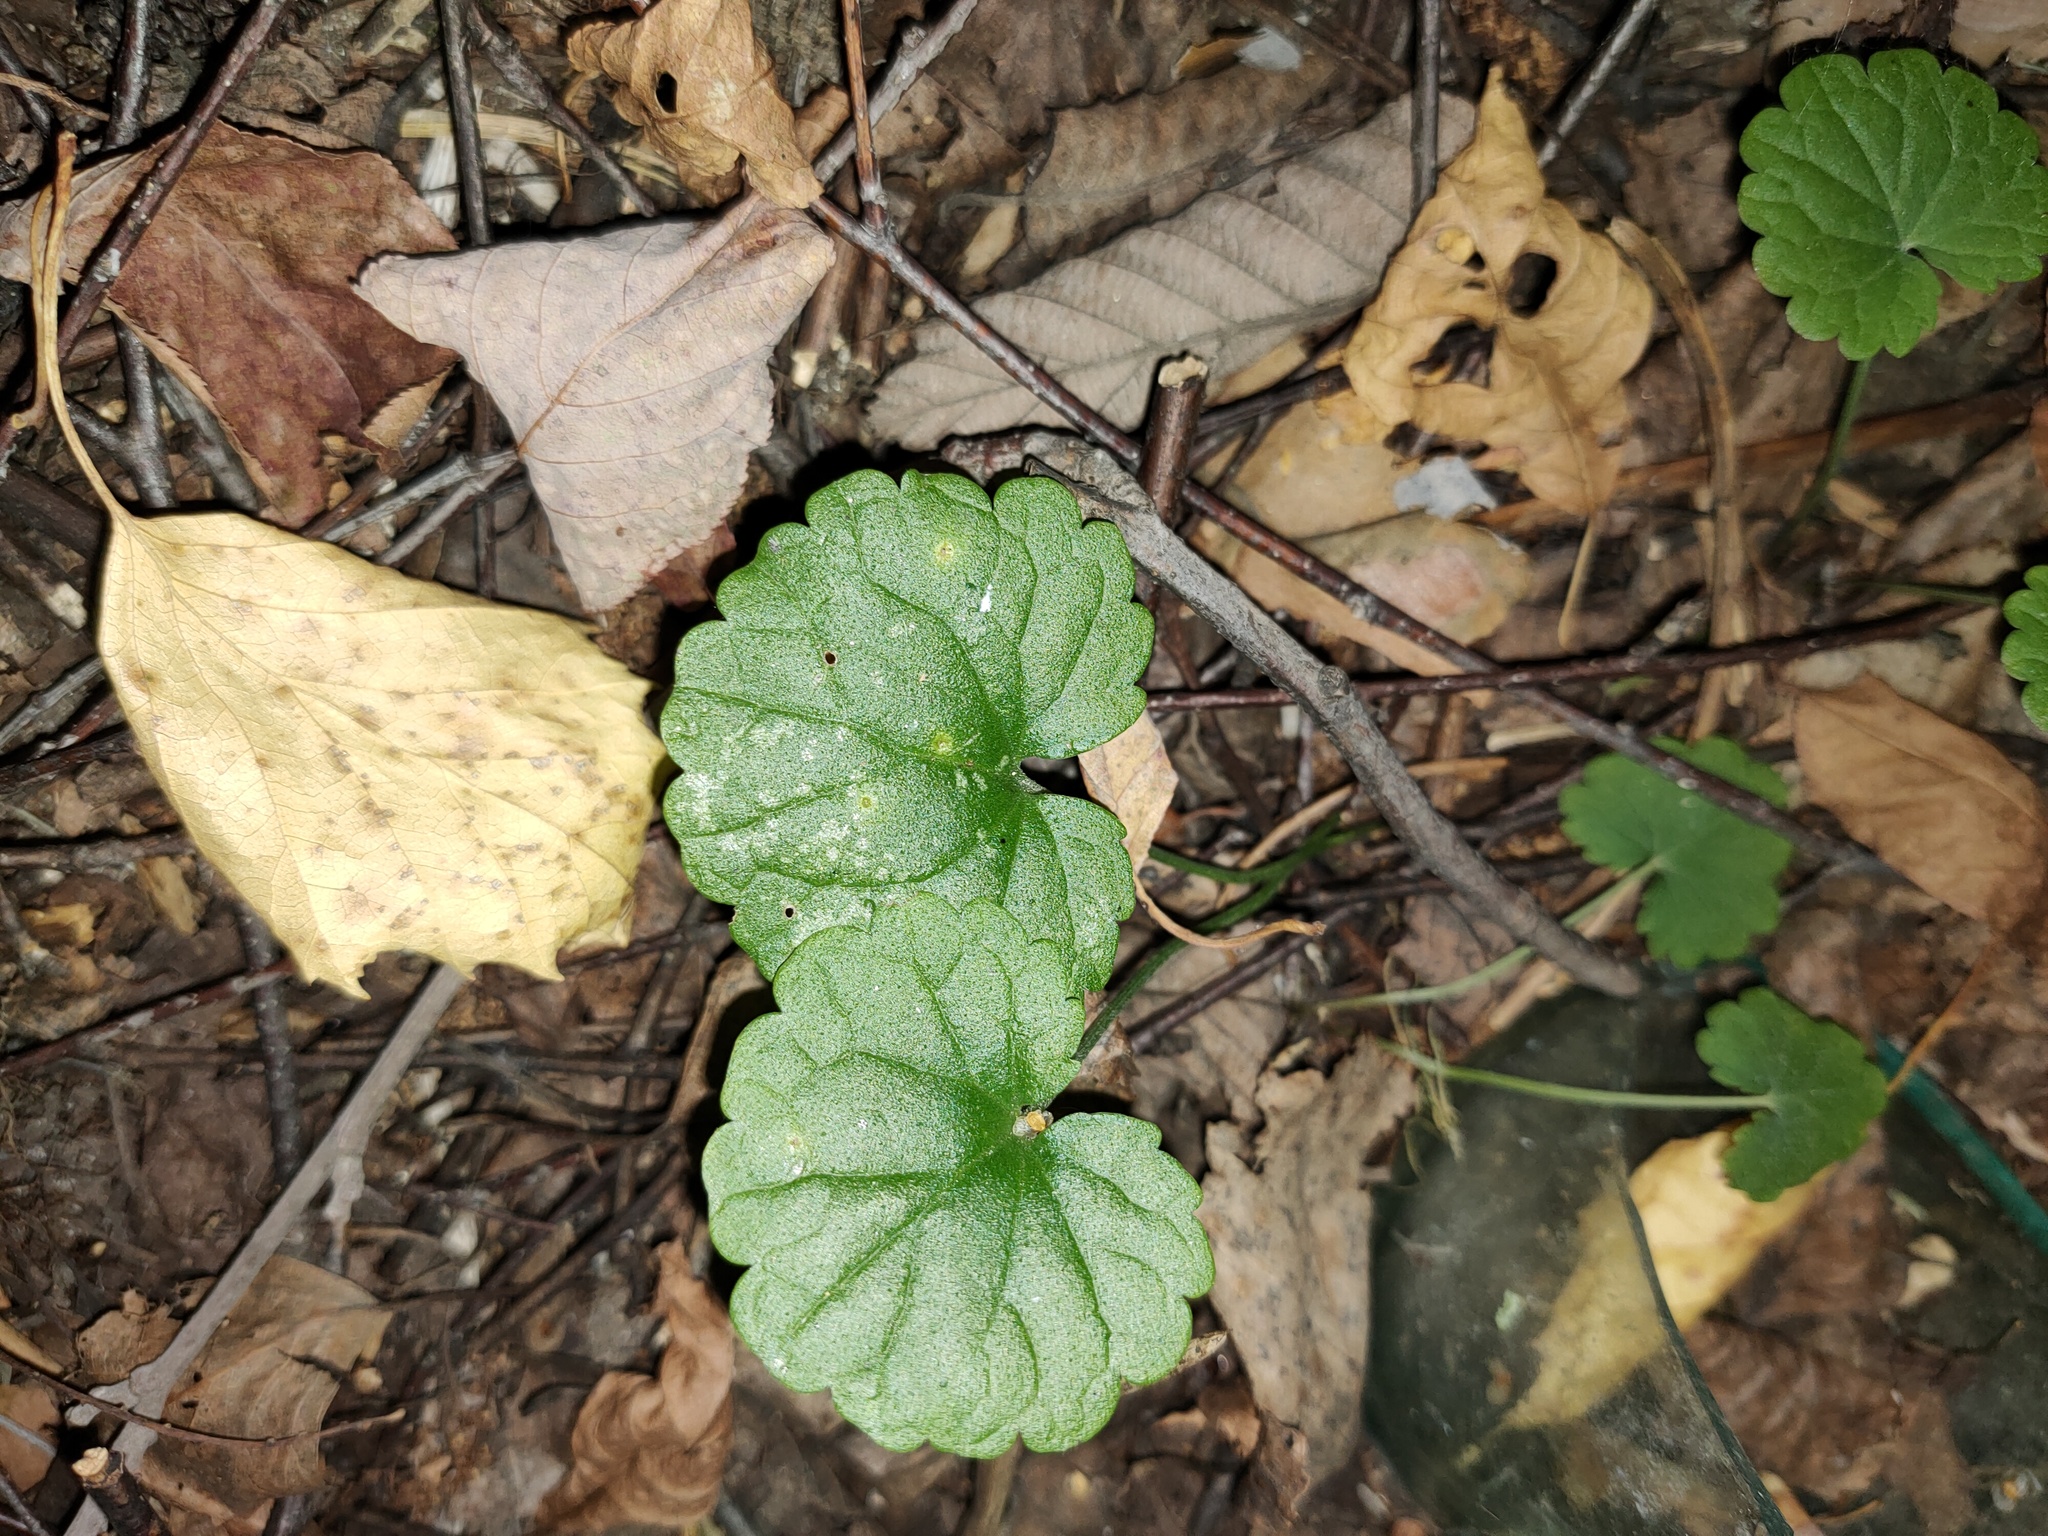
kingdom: Plantae
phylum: Tracheophyta
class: Magnoliopsida
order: Lamiales
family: Lamiaceae
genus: Glechoma
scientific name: Glechoma hederacea
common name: Ground ivy
